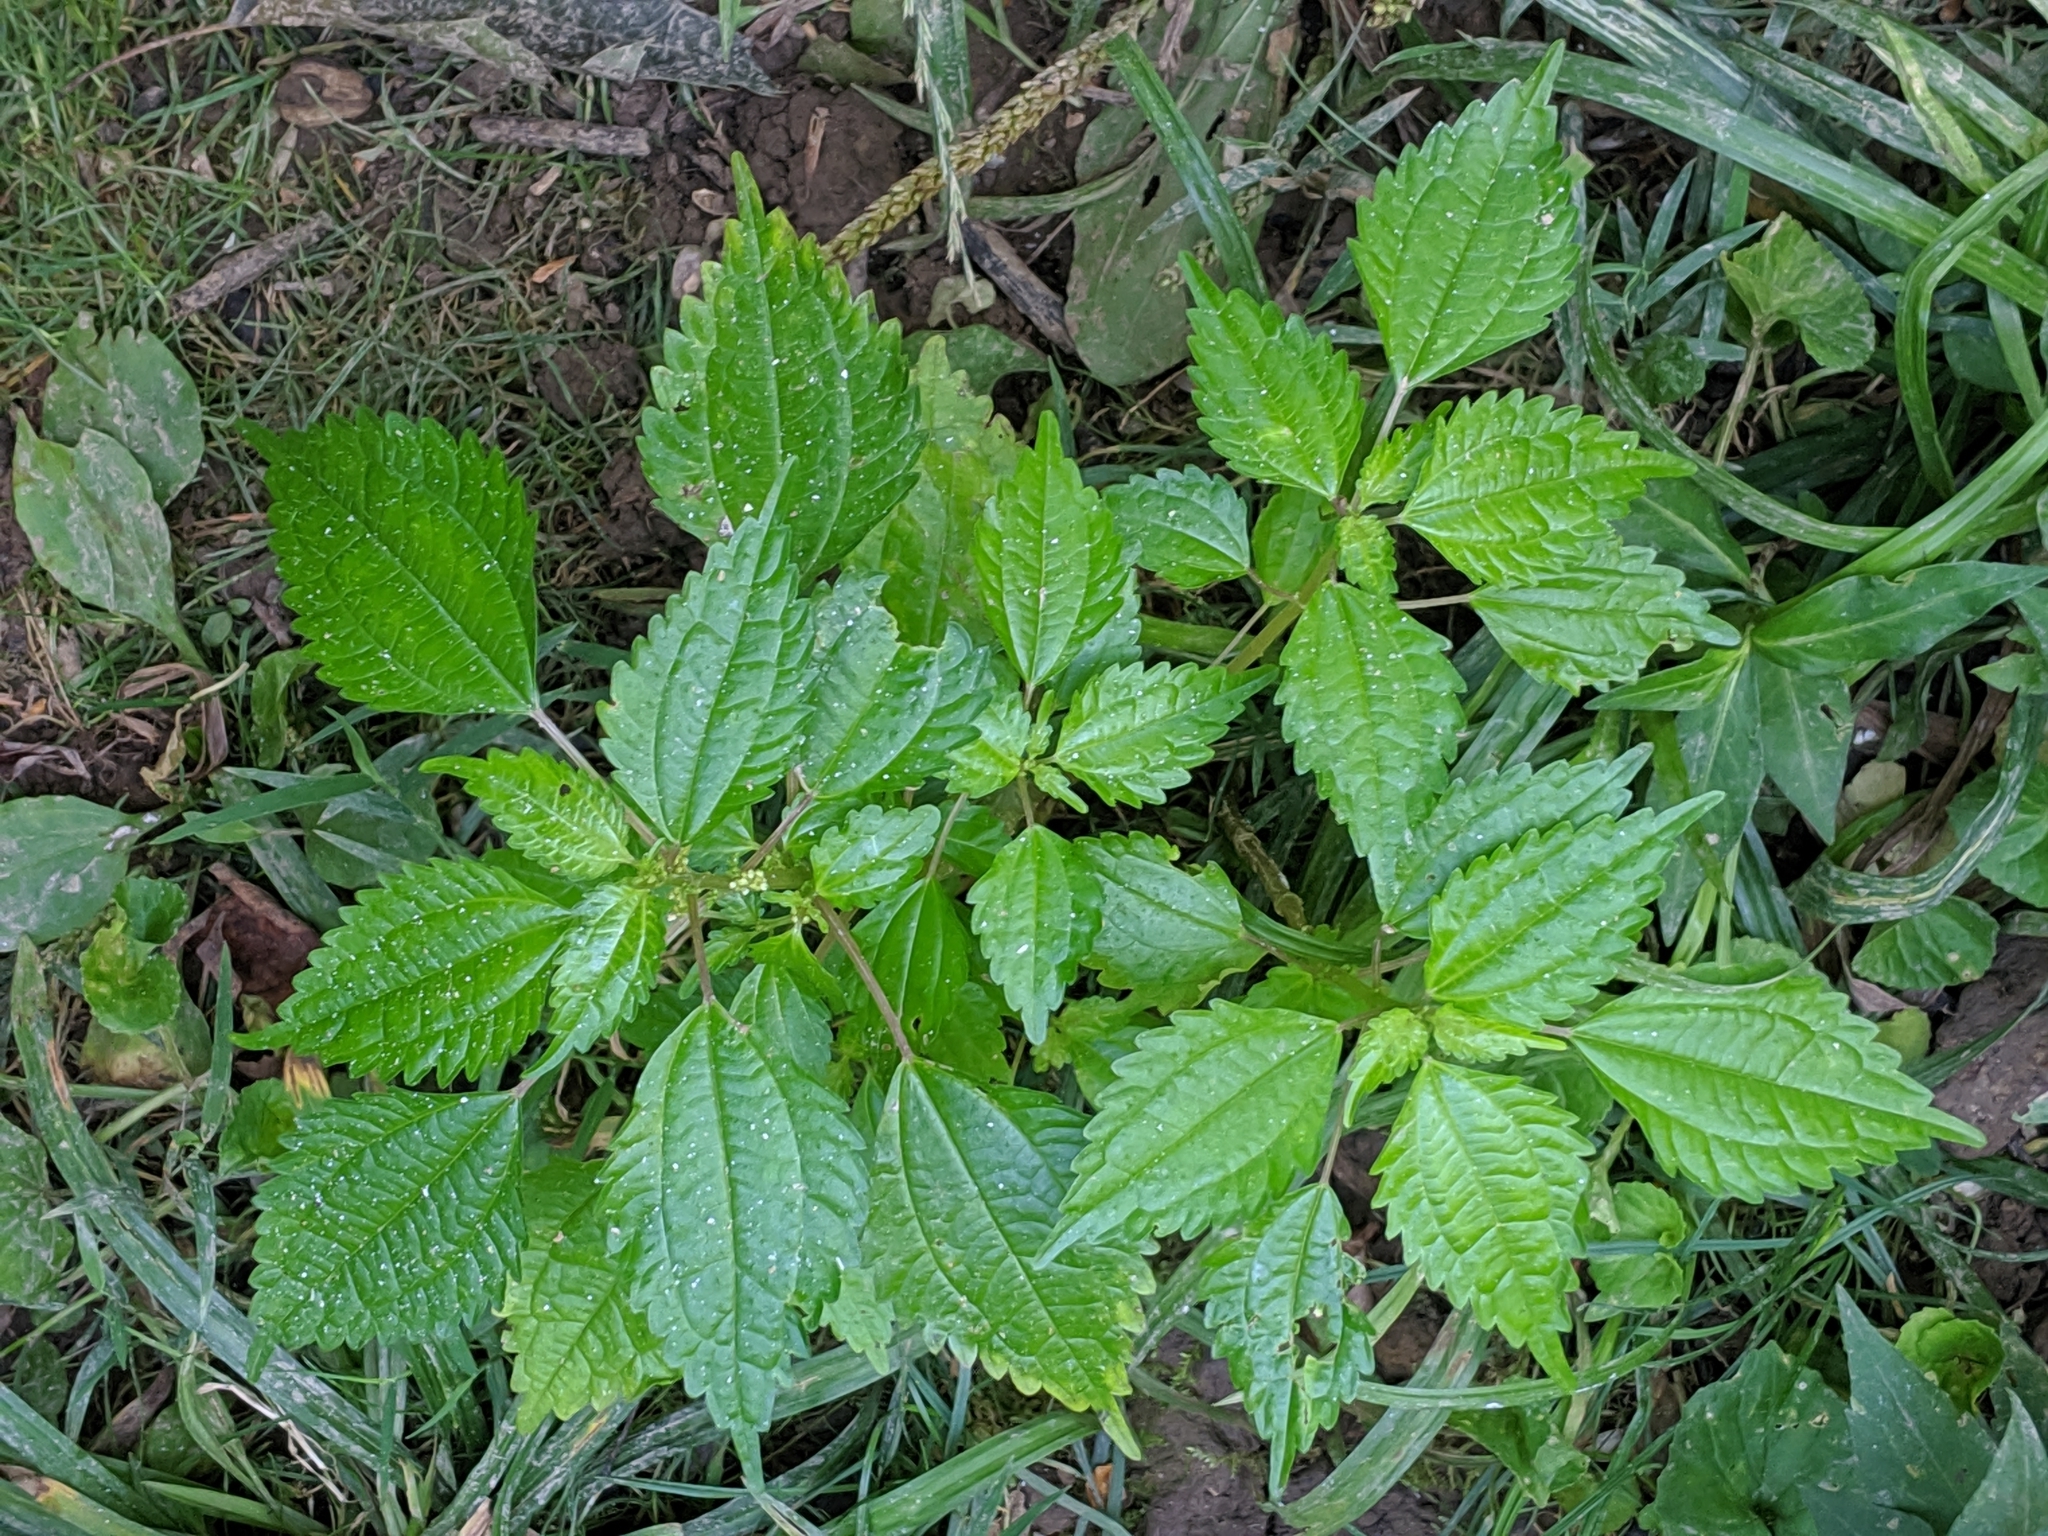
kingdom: Plantae
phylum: Tracheophyta
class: Magnoliopsida
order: Rosales
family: Urticaceae
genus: Pilea
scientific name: Pilea pumila
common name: Clearweed
